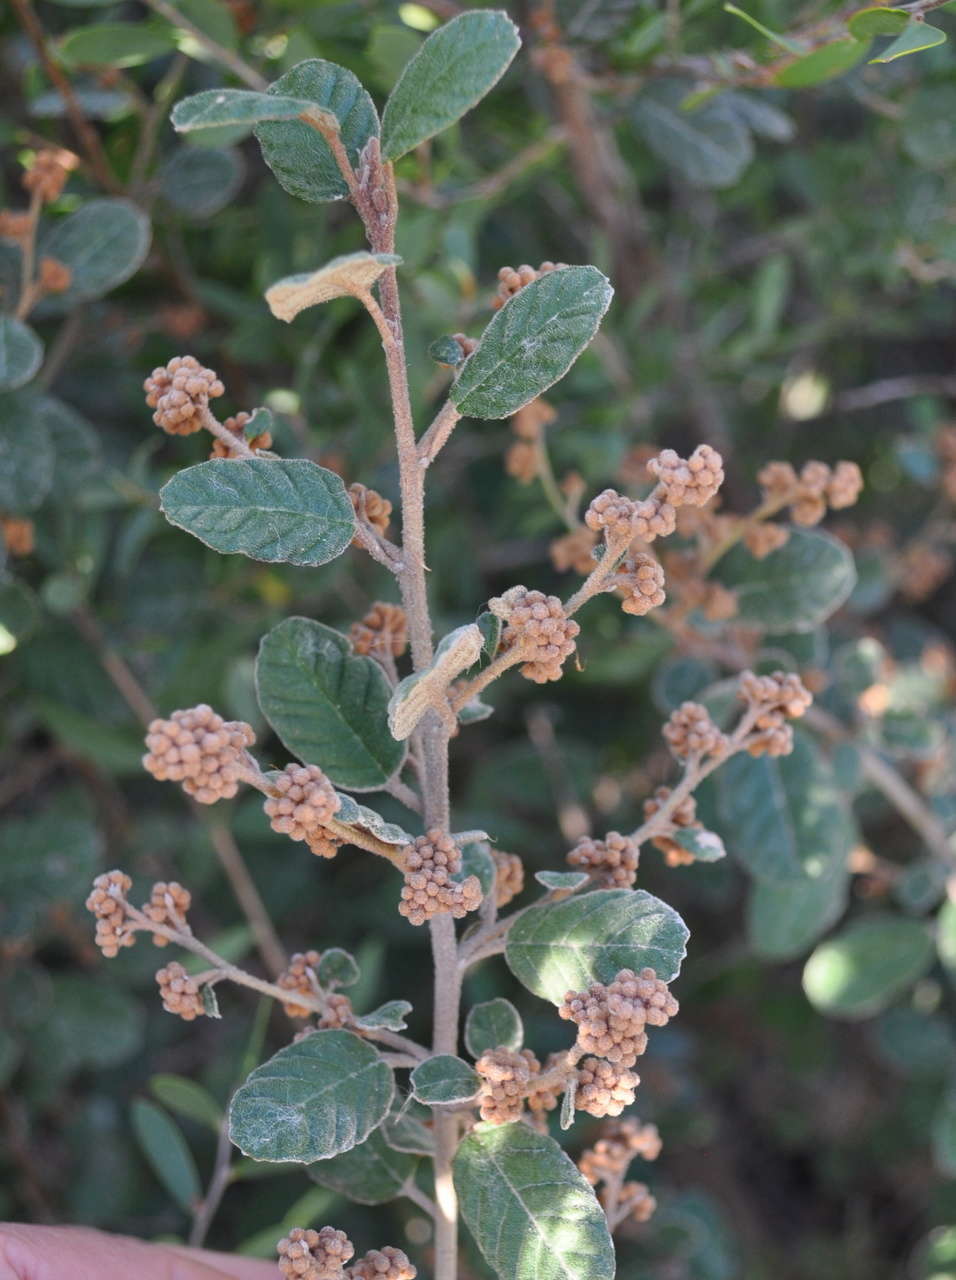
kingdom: Plantae
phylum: Tracheophyta
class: Magnoliopsida
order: Rosales
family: Rhamnaceae
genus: Pomaderris
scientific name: Pomaderris oraria
